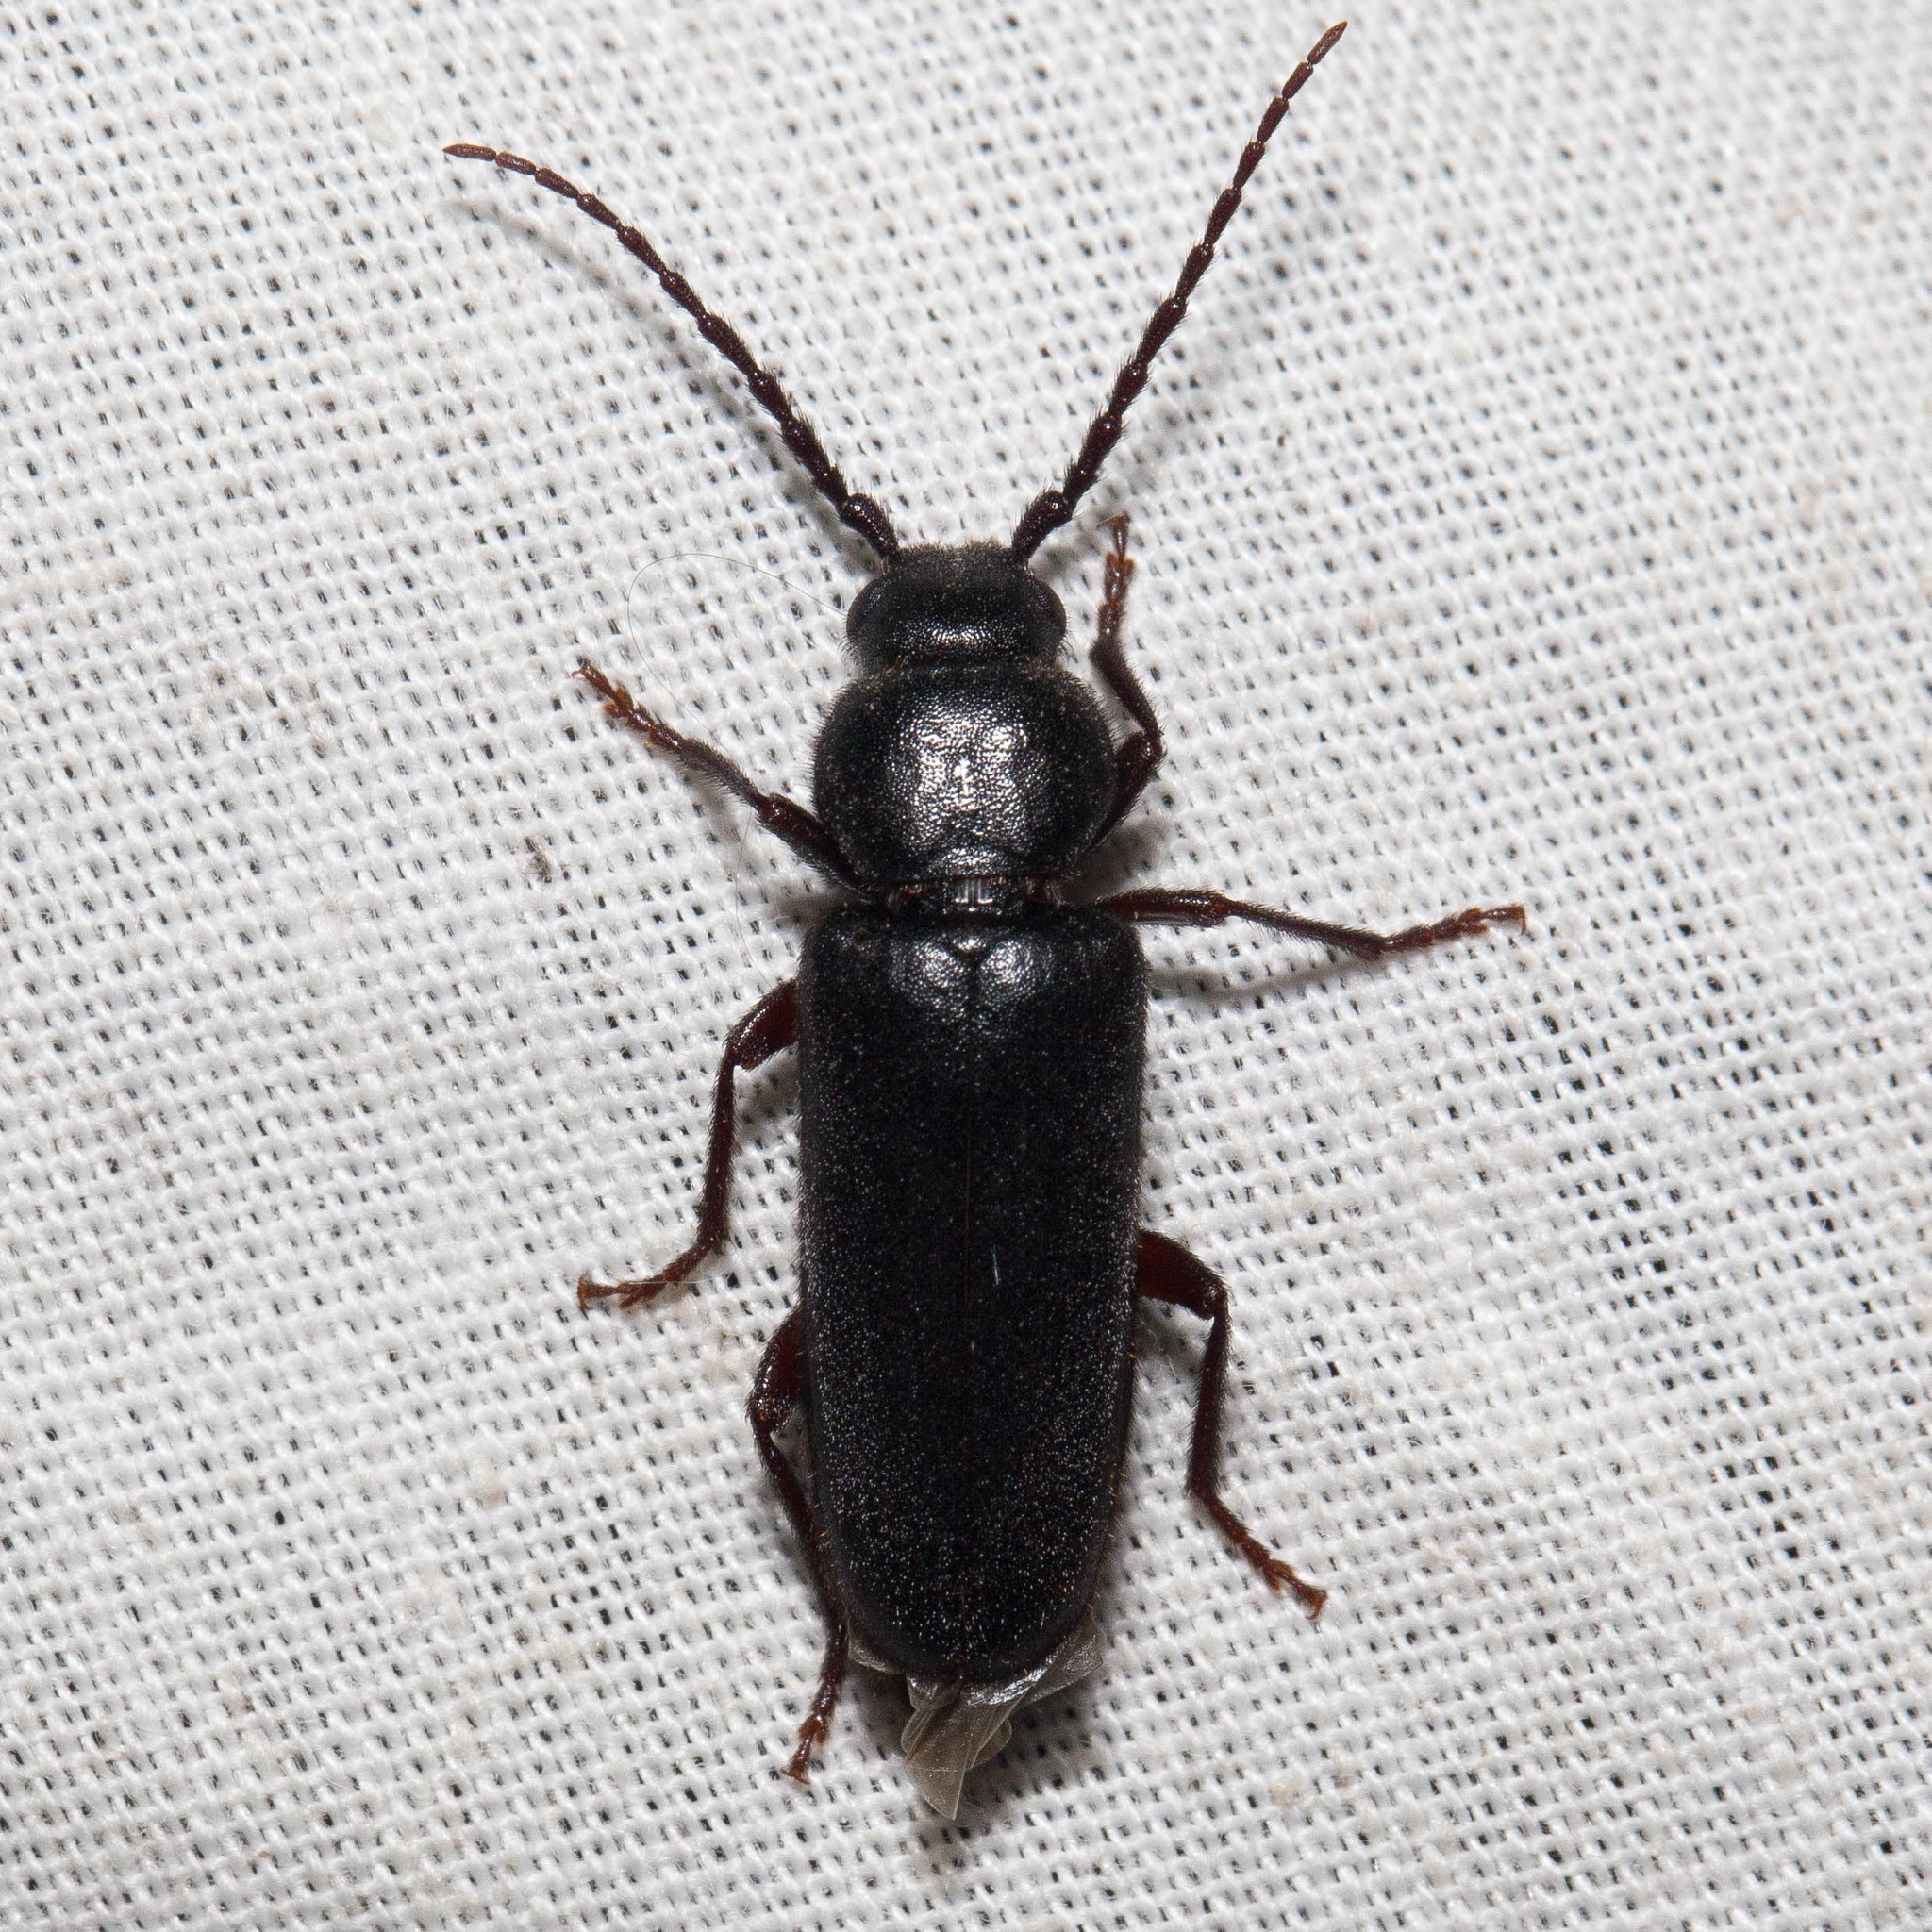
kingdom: Animalia
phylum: Arthropoda
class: Insecta
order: Coleoptera
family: Cerambycidae
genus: Asemum
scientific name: Asemum nitidum
